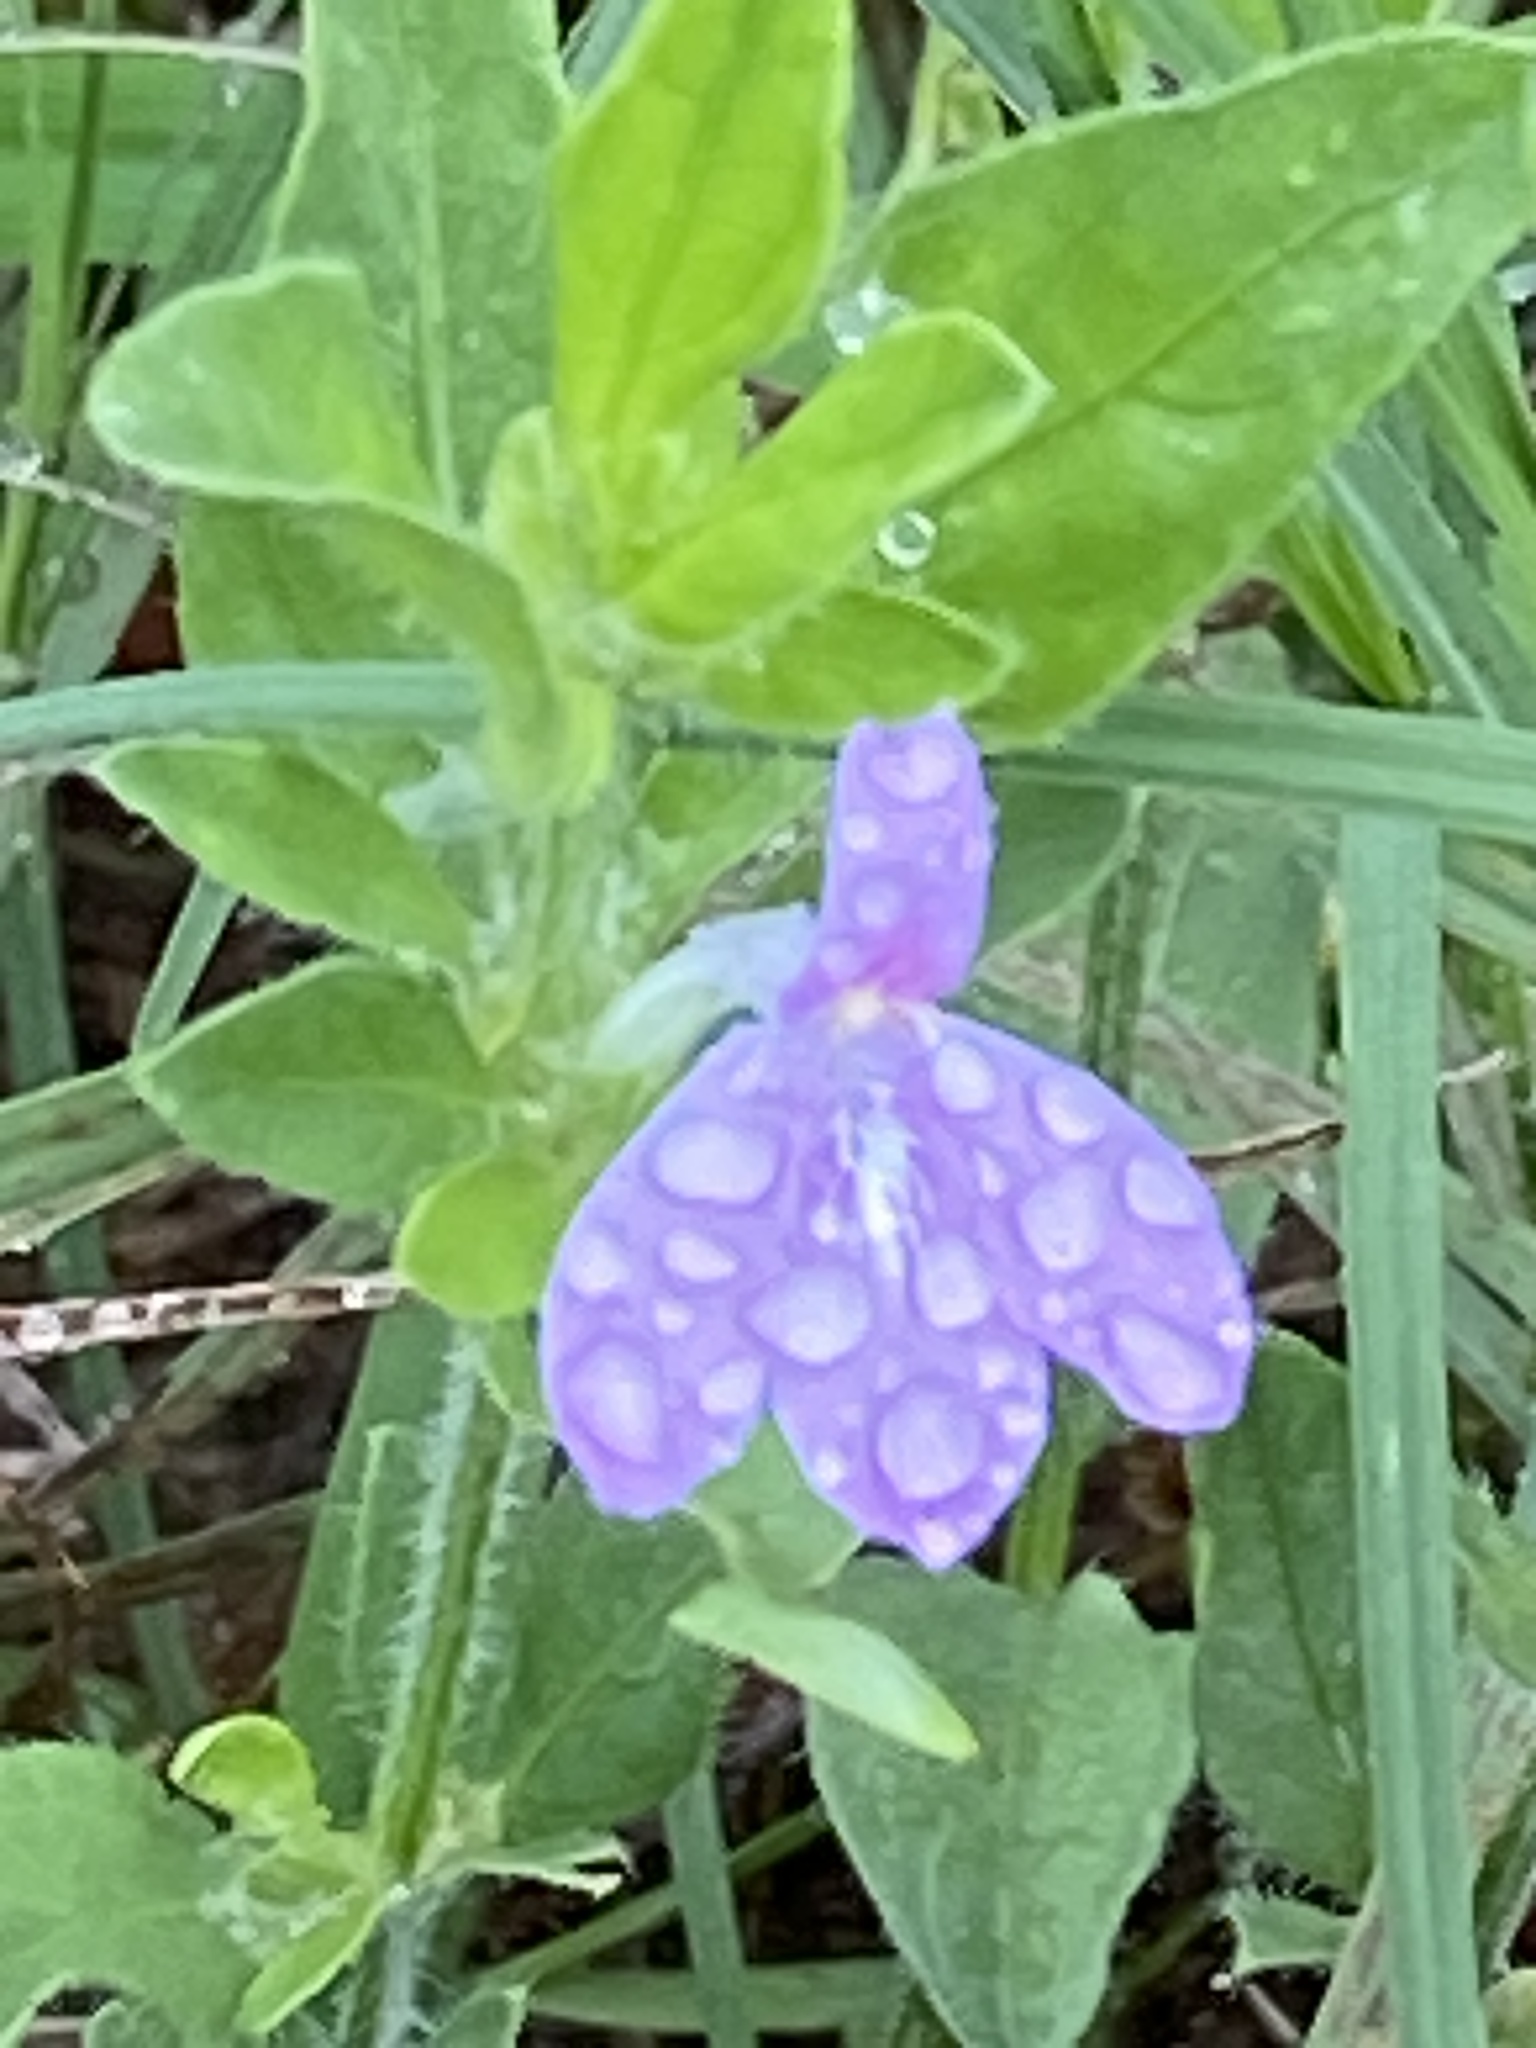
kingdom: Plantae
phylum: Tracheophyta
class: Magnoliopsida
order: Lamiales
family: Acanthaceae
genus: Justicia
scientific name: Justicia pilosella
